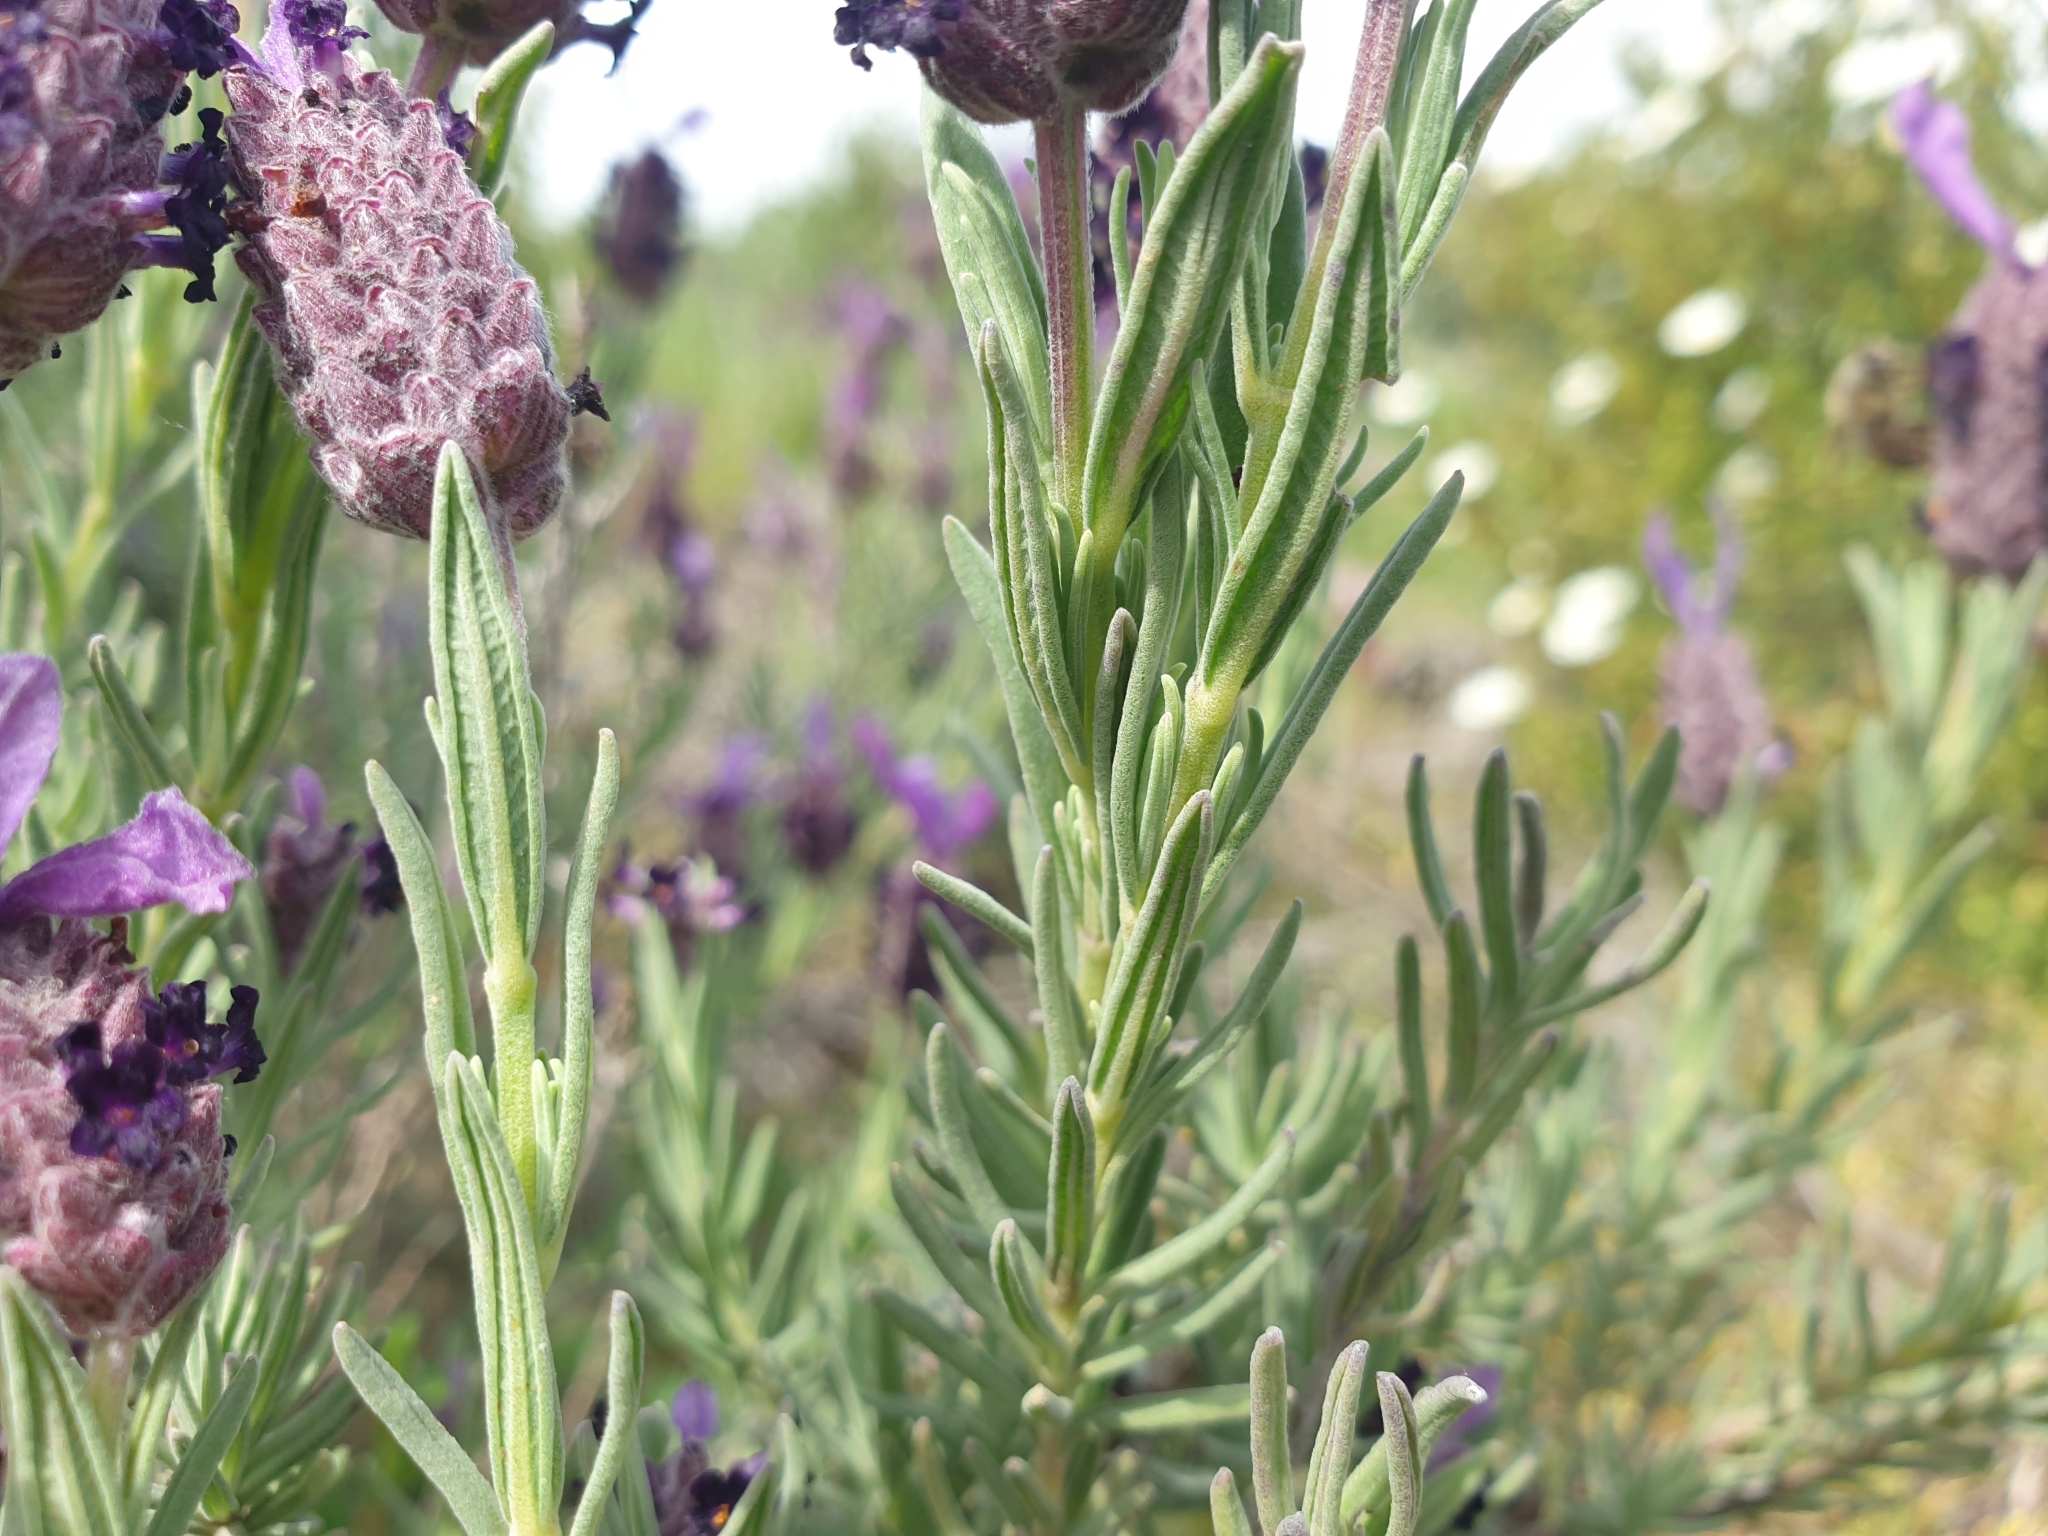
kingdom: Plantae
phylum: Tracheophyta
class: Magnoliopsida
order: Lamiales
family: Lamiaceae
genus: Lavandula
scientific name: Lavandula stoechas
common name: French lavender
